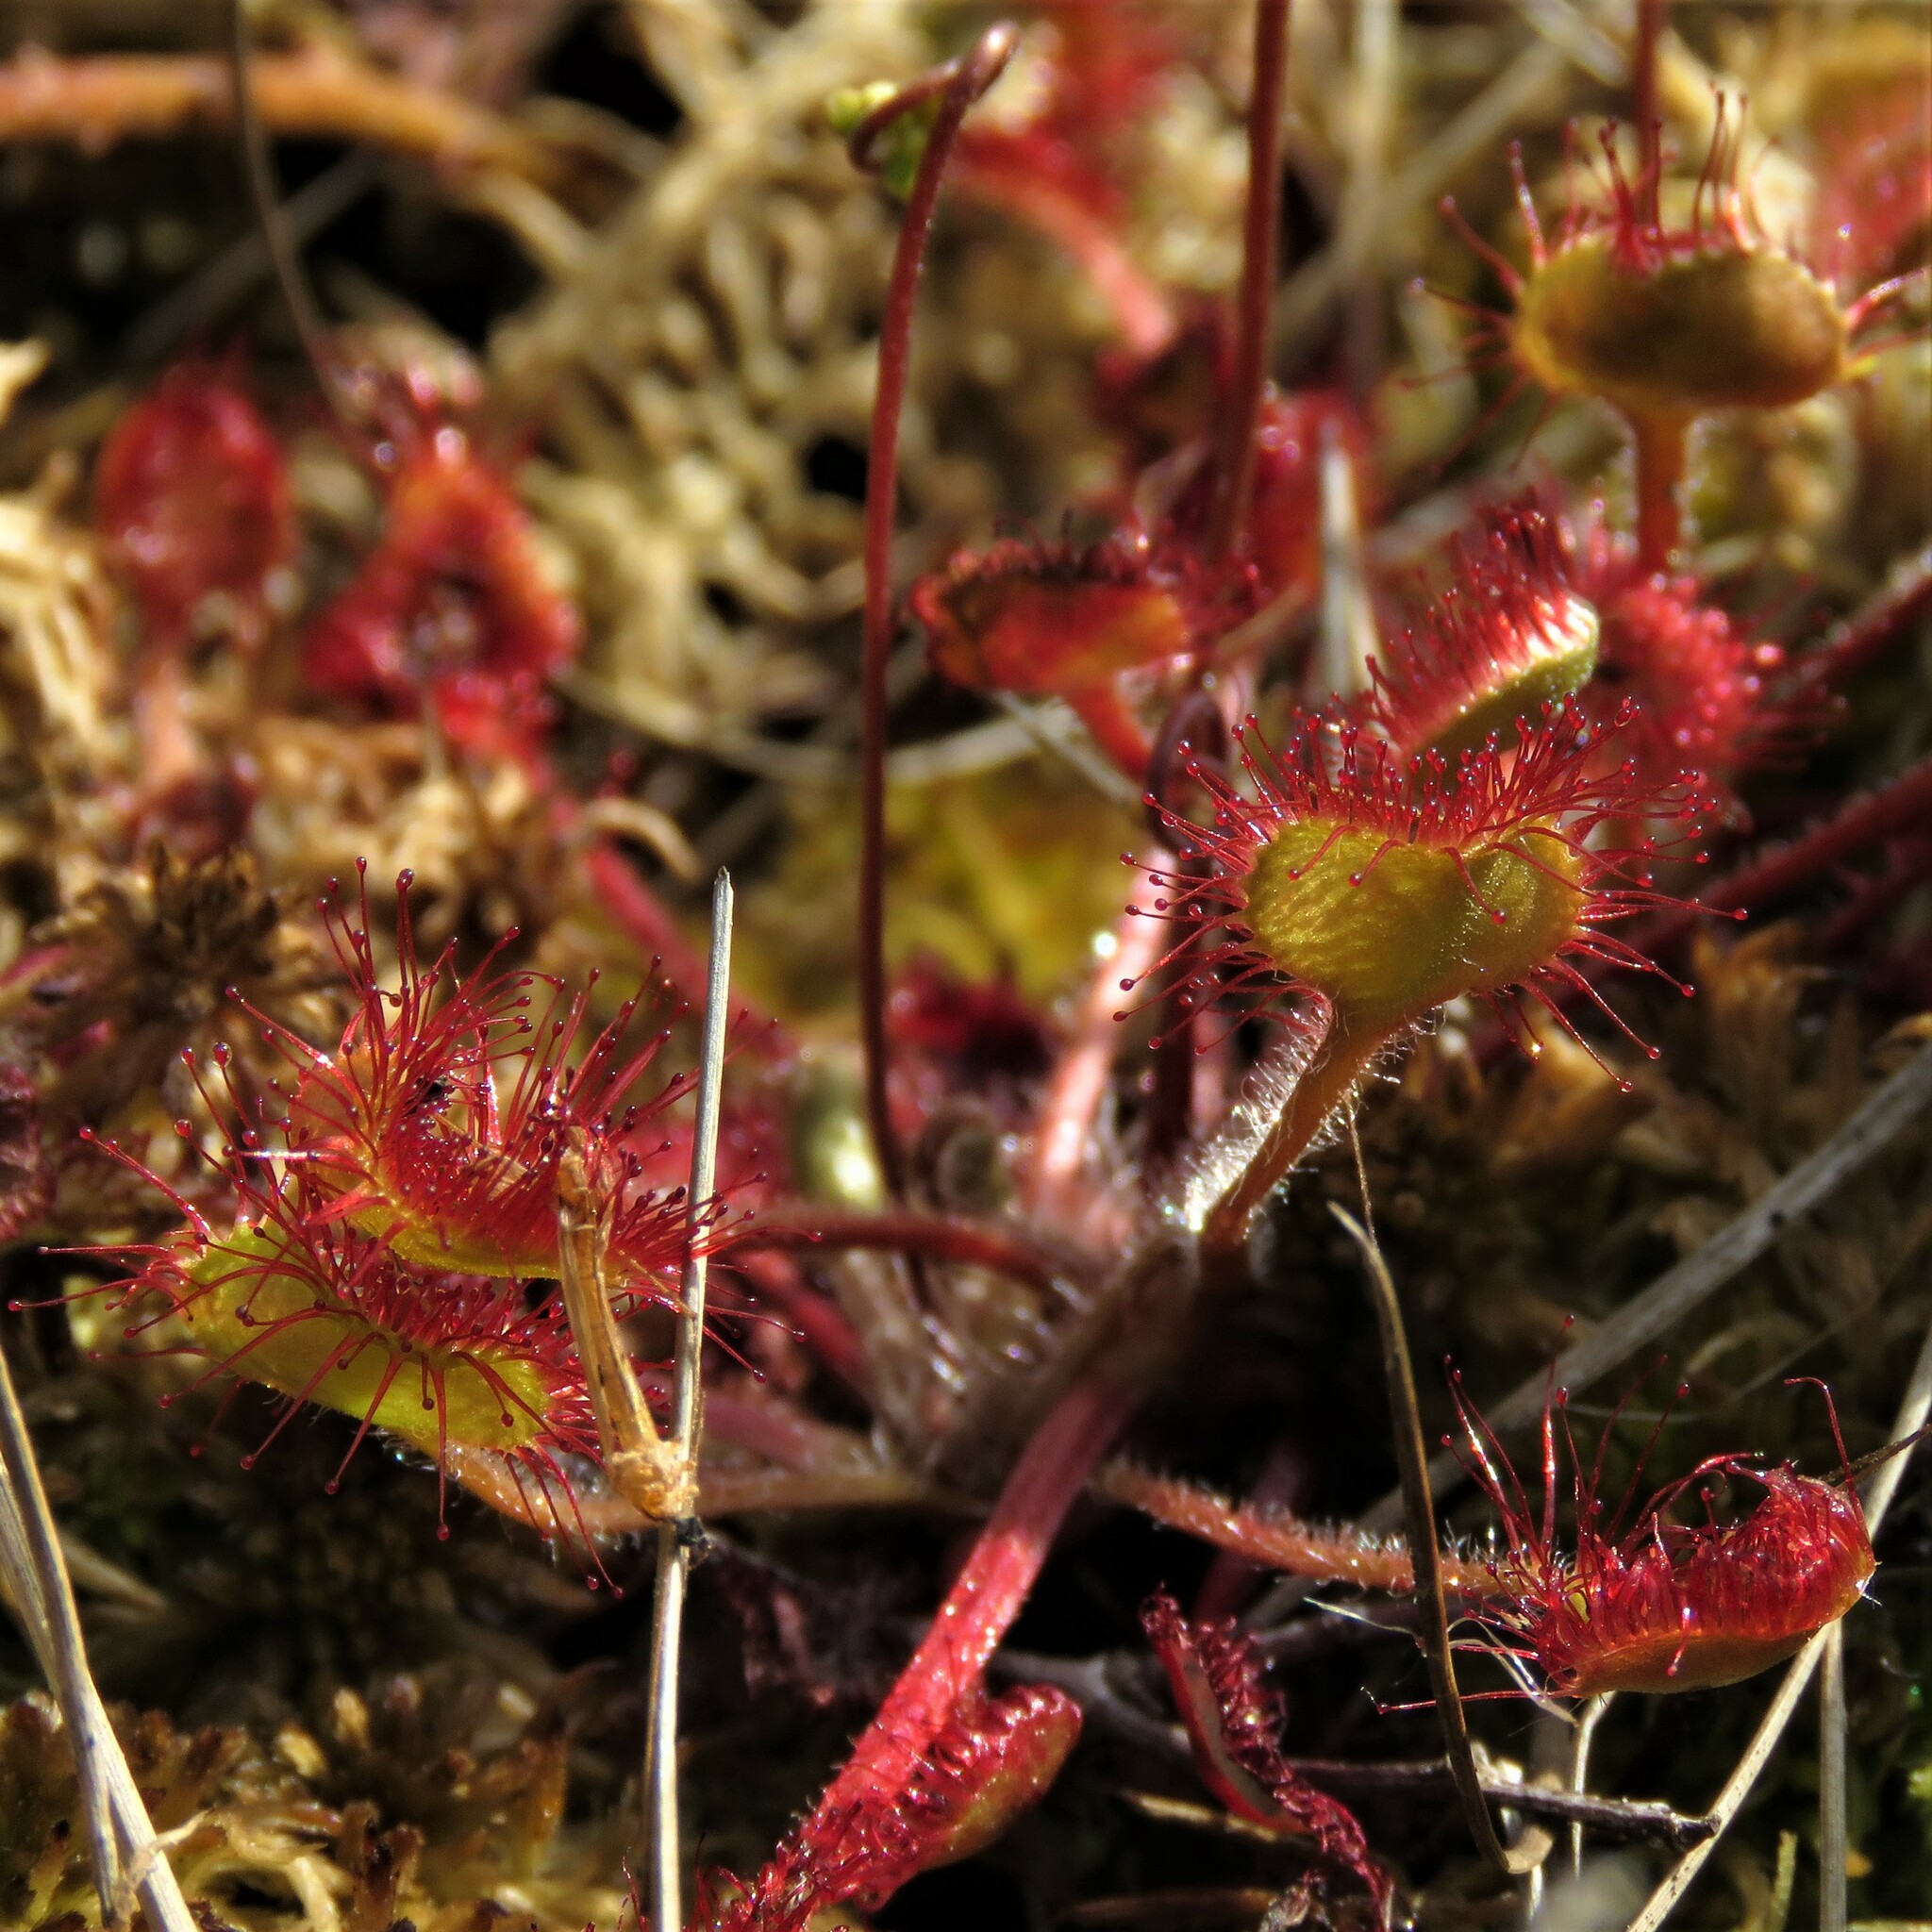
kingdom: Plantae
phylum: Tracheophyta
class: Magnoliopsida
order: Caryophyllales
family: Droseraceae
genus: Drosera
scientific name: Drosera rotundifolia
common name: Round-leaved sundew
